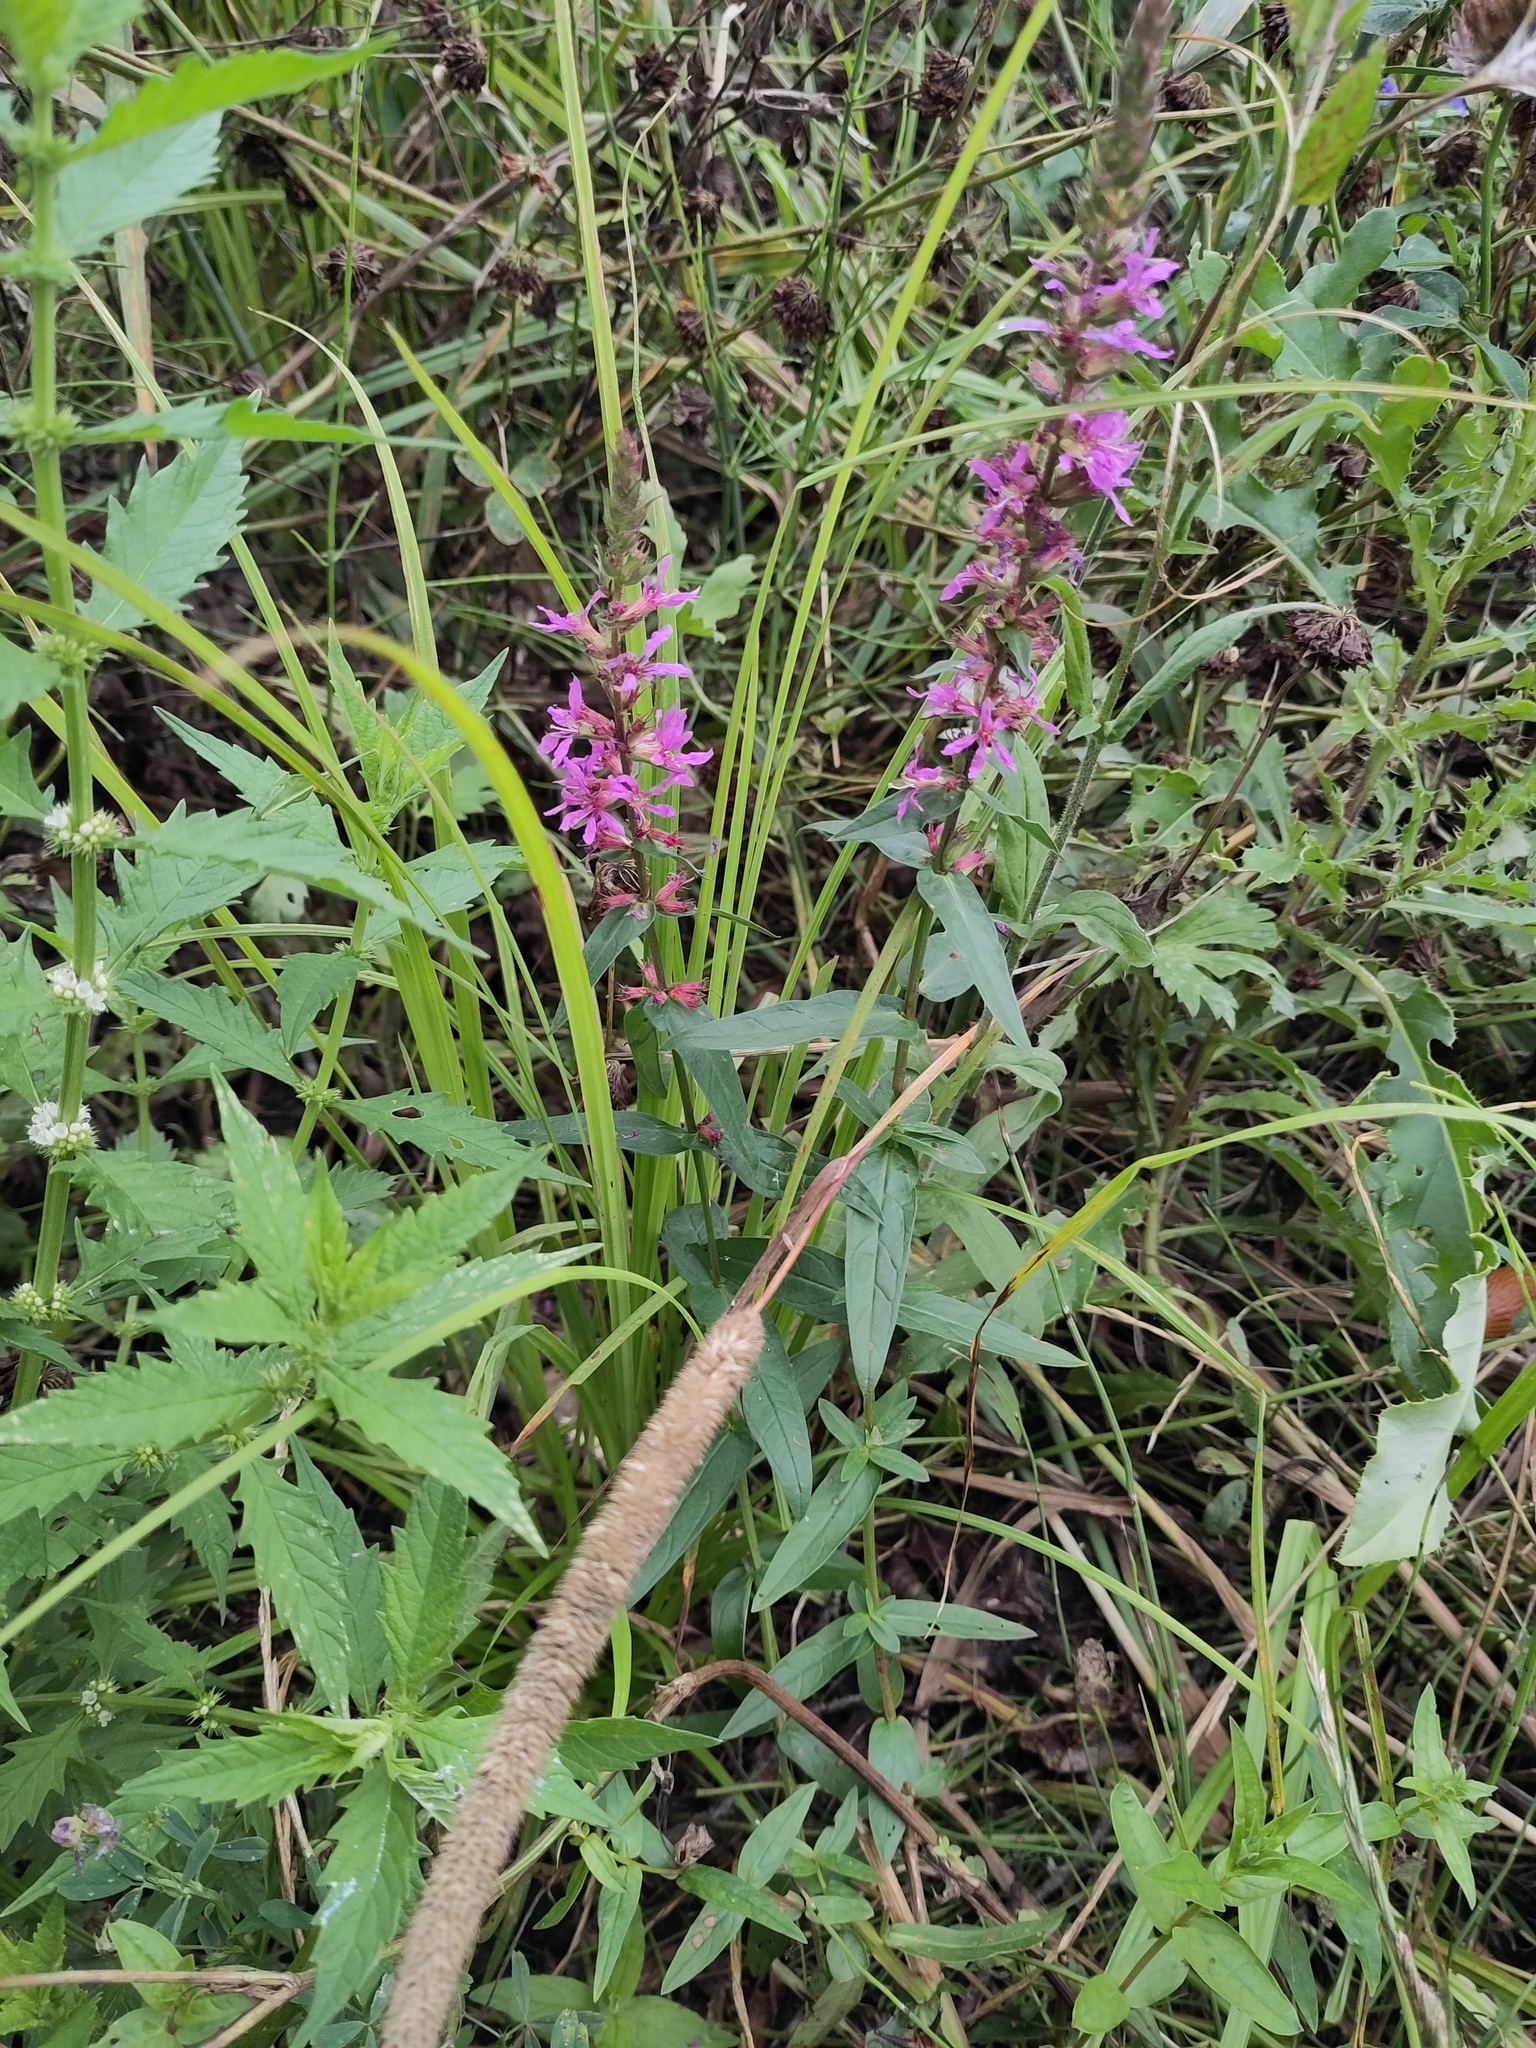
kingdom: Plantae
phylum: Tracheophyta
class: Magnoliopsida
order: Myrtales
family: Lythraceae
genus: Lythrum
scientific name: Lythrum salicaria
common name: Purple loosestrife
